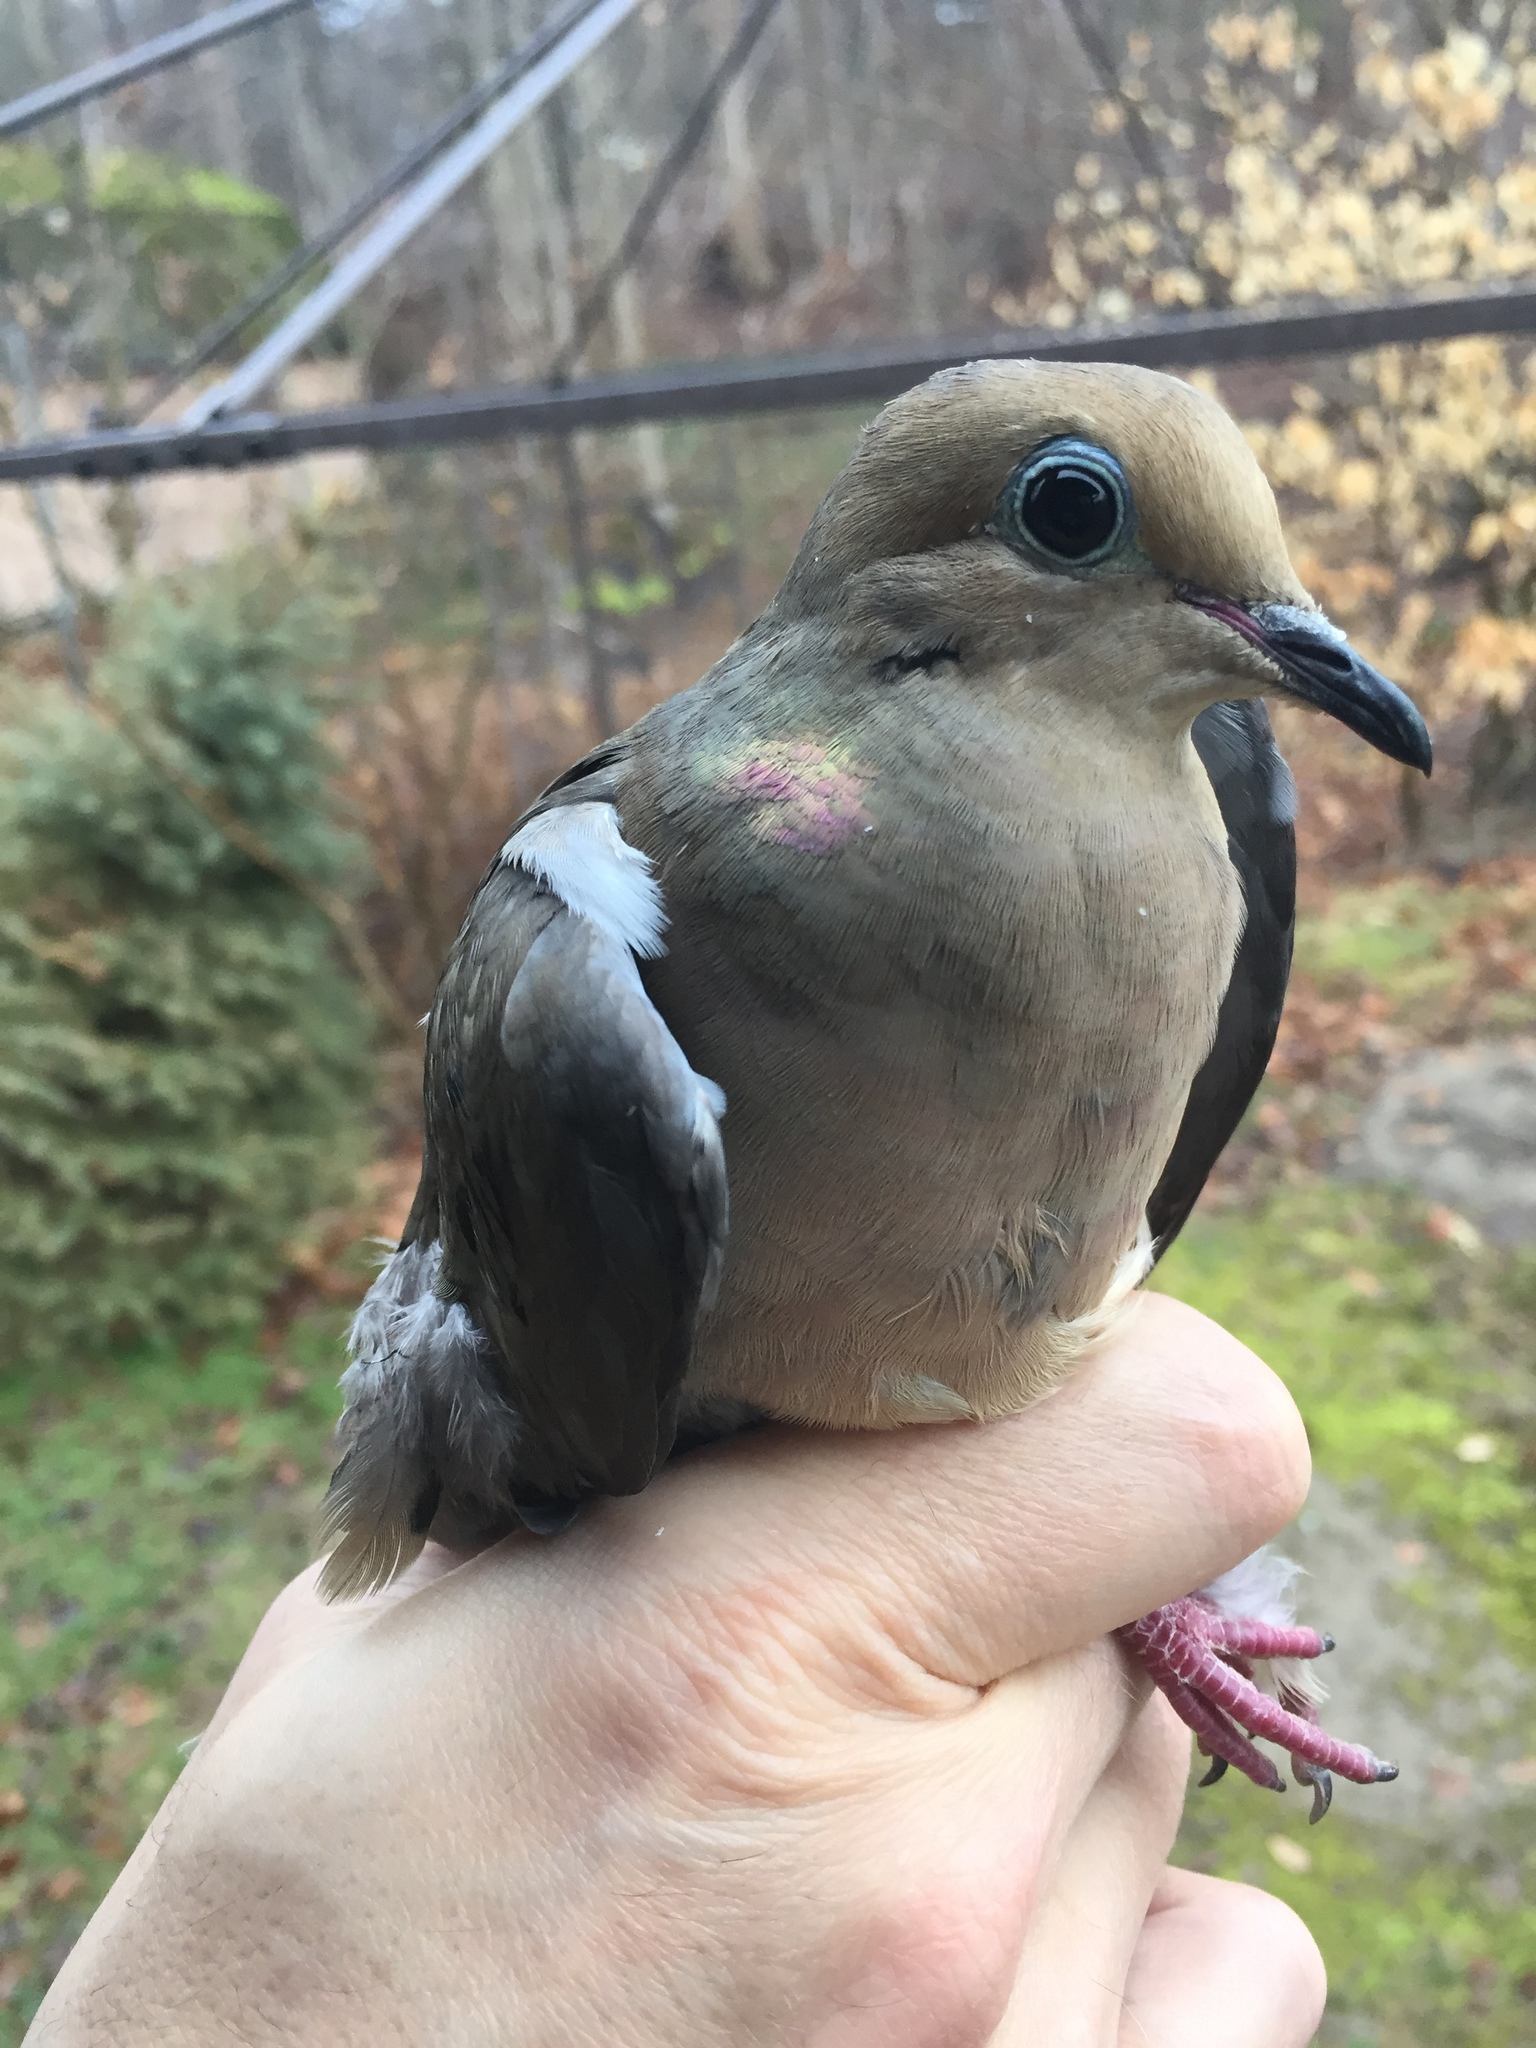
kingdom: Animalia
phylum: Chordata
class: Aves
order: Columbiformes
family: Columbidae
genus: Zenaida
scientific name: Zenaida macroura
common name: Mourning dove
